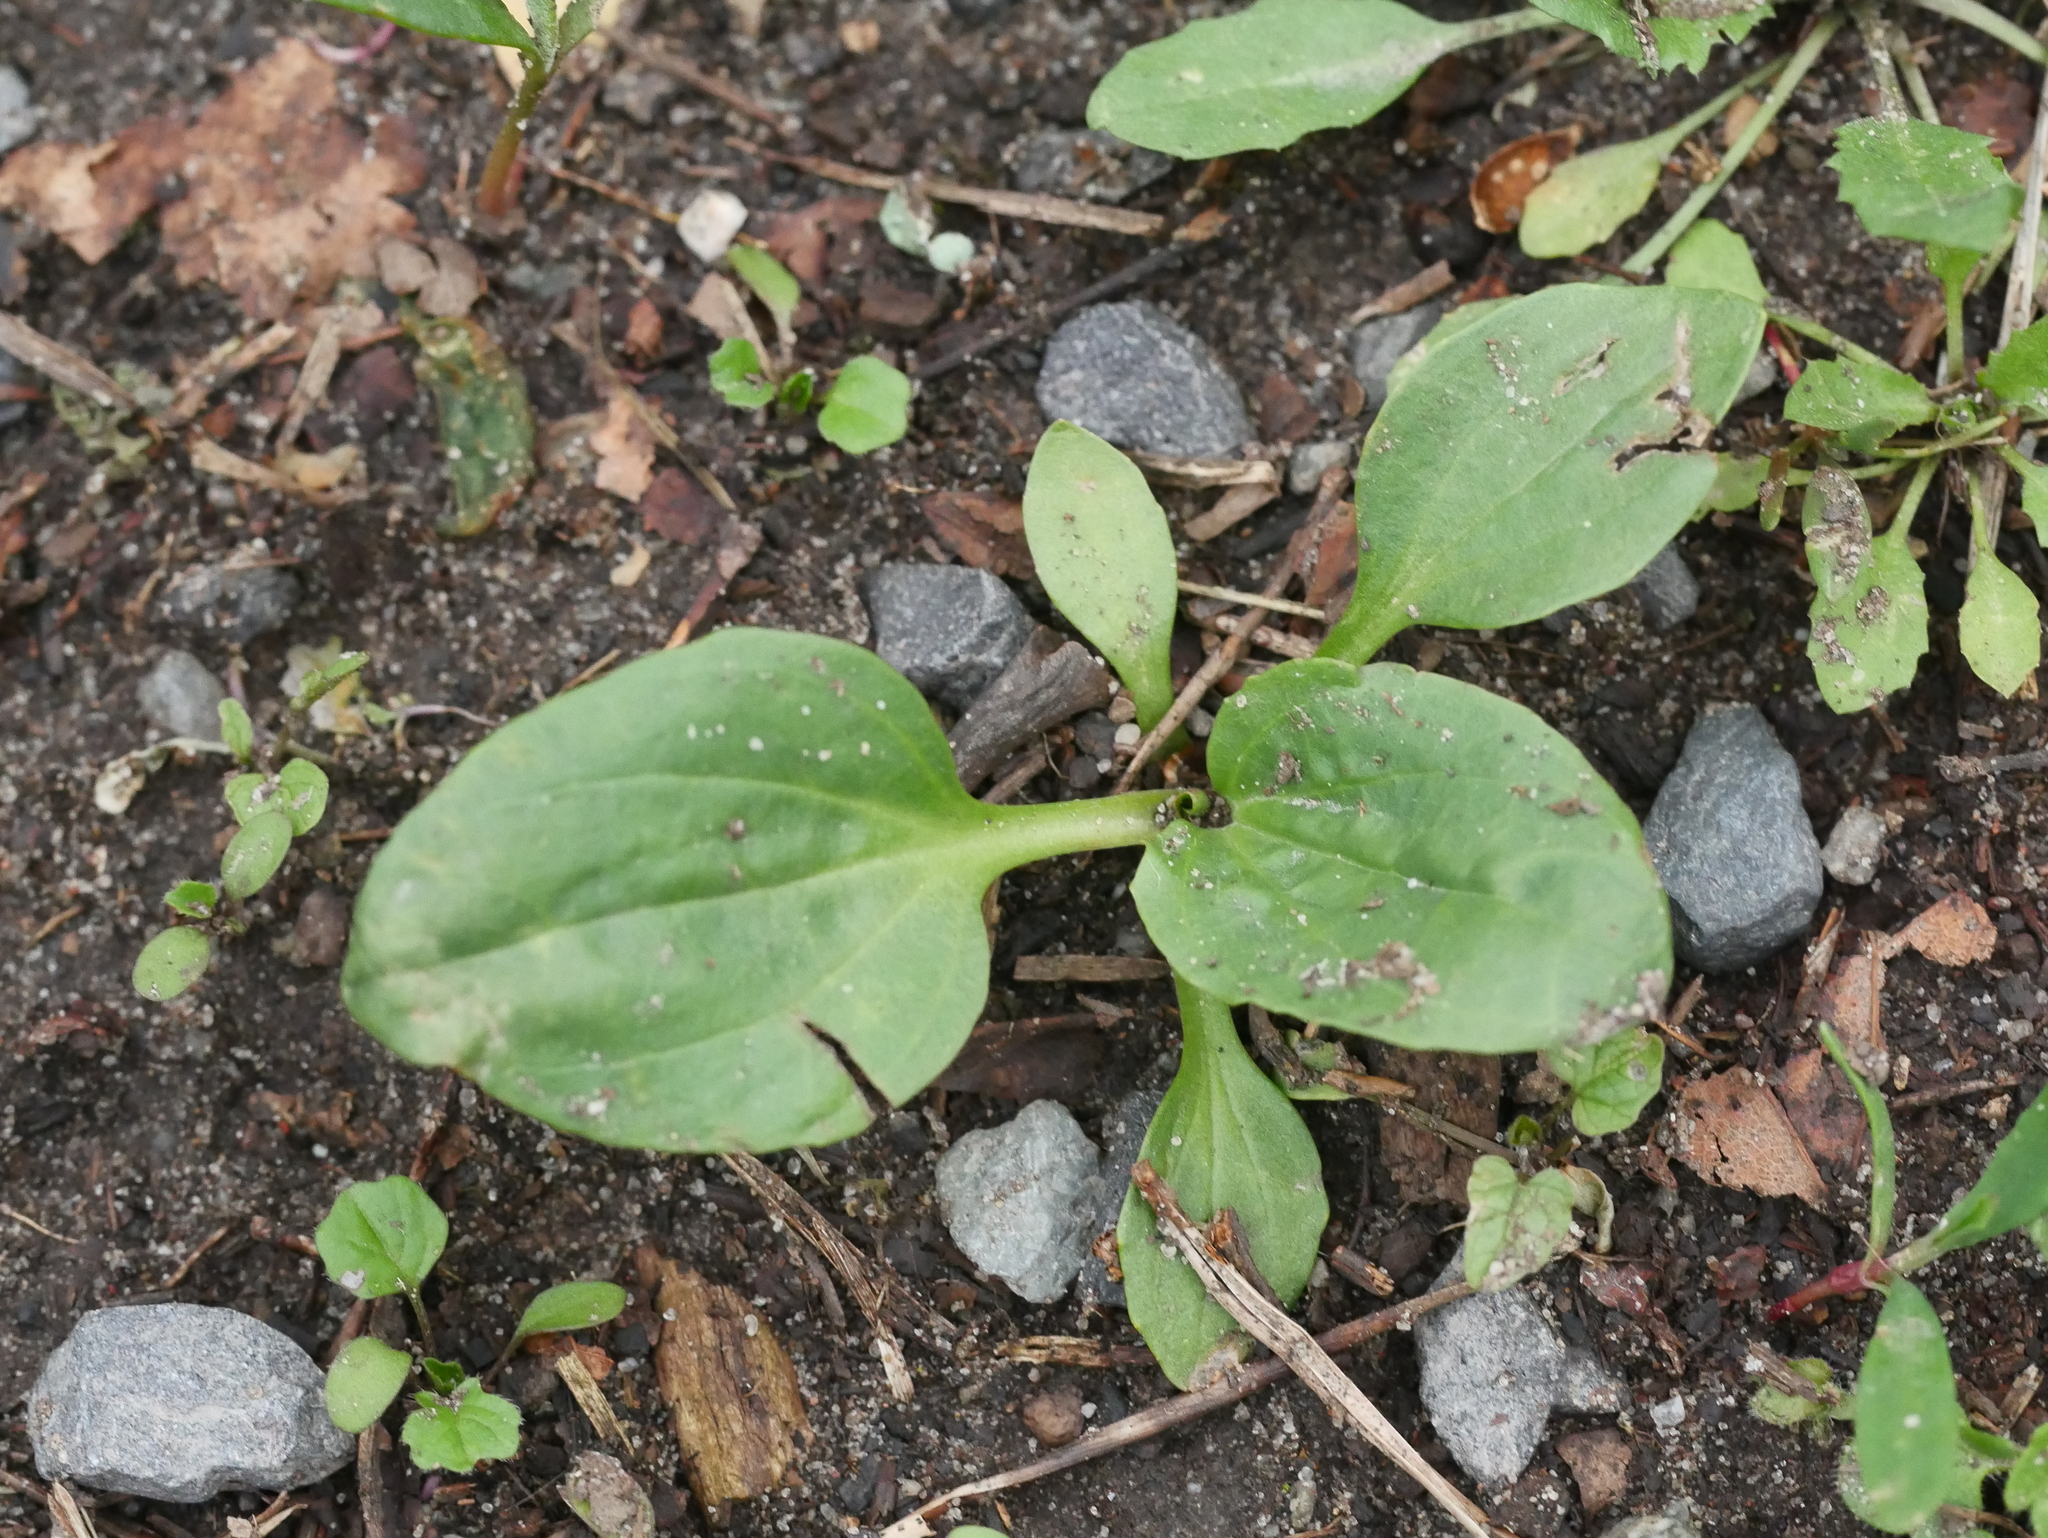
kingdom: Plantae
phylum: Tracheophyta
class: Magnoliopsida
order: Lamiales
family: Plantaginaceae
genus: Plantago
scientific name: Plantago major
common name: Common plantain
